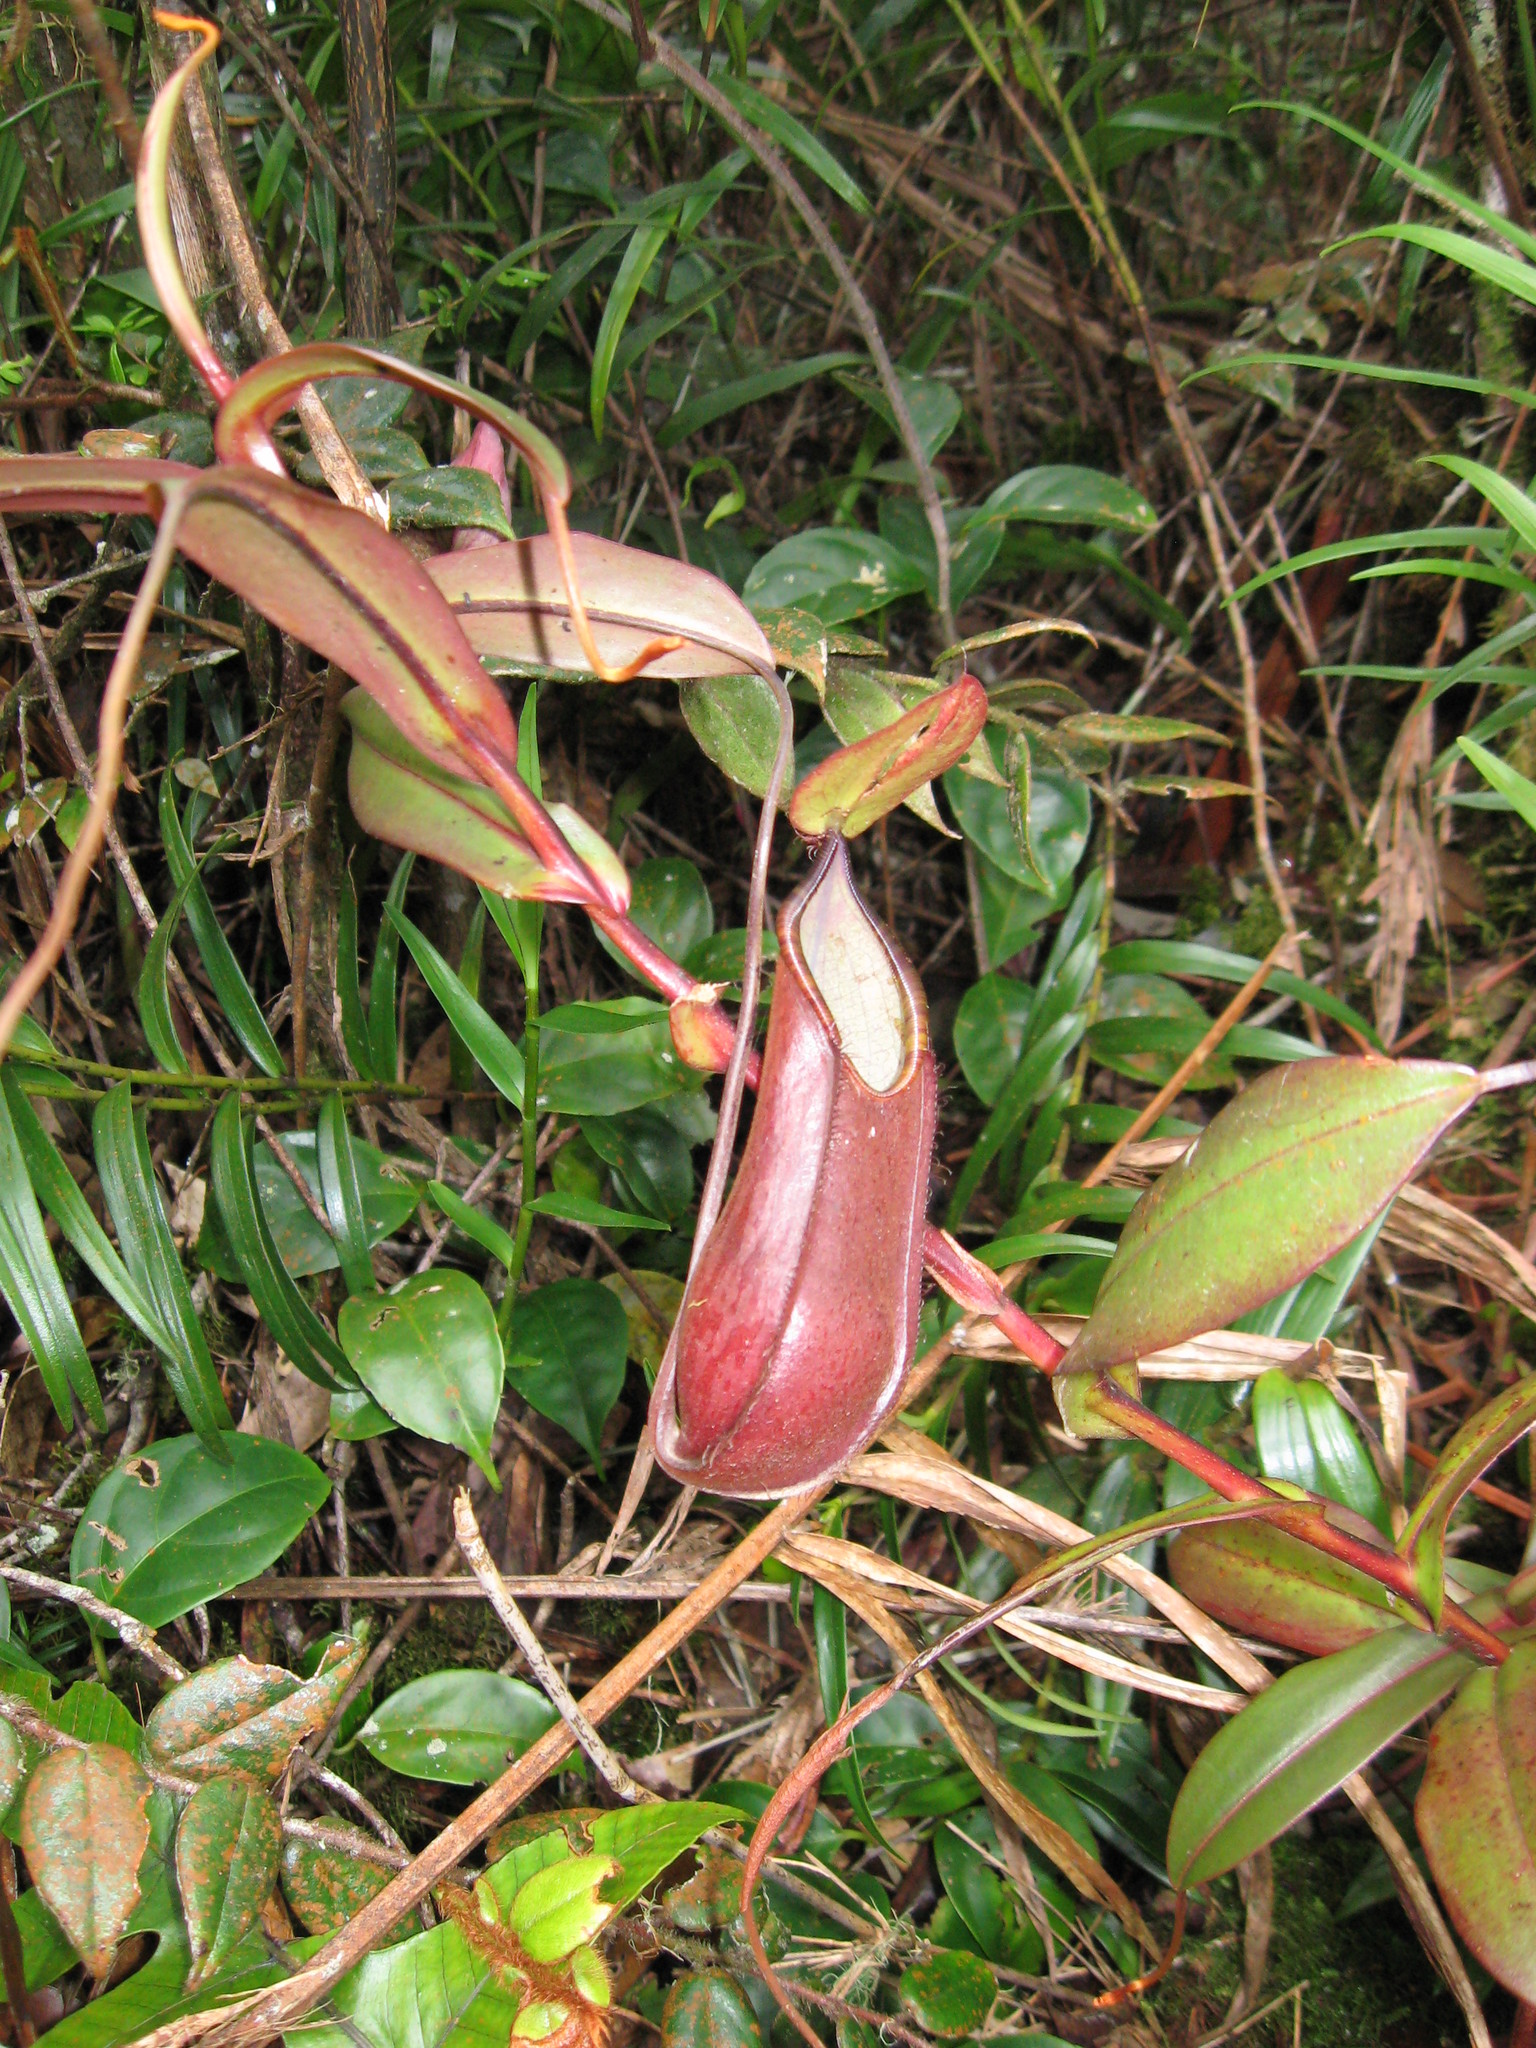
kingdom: Plantae
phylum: Tracheophyta
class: Magnoliopsida
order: Caryophyllales
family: Nepenthaceae
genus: Nepenthes
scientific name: Nepenthes tentaculata
